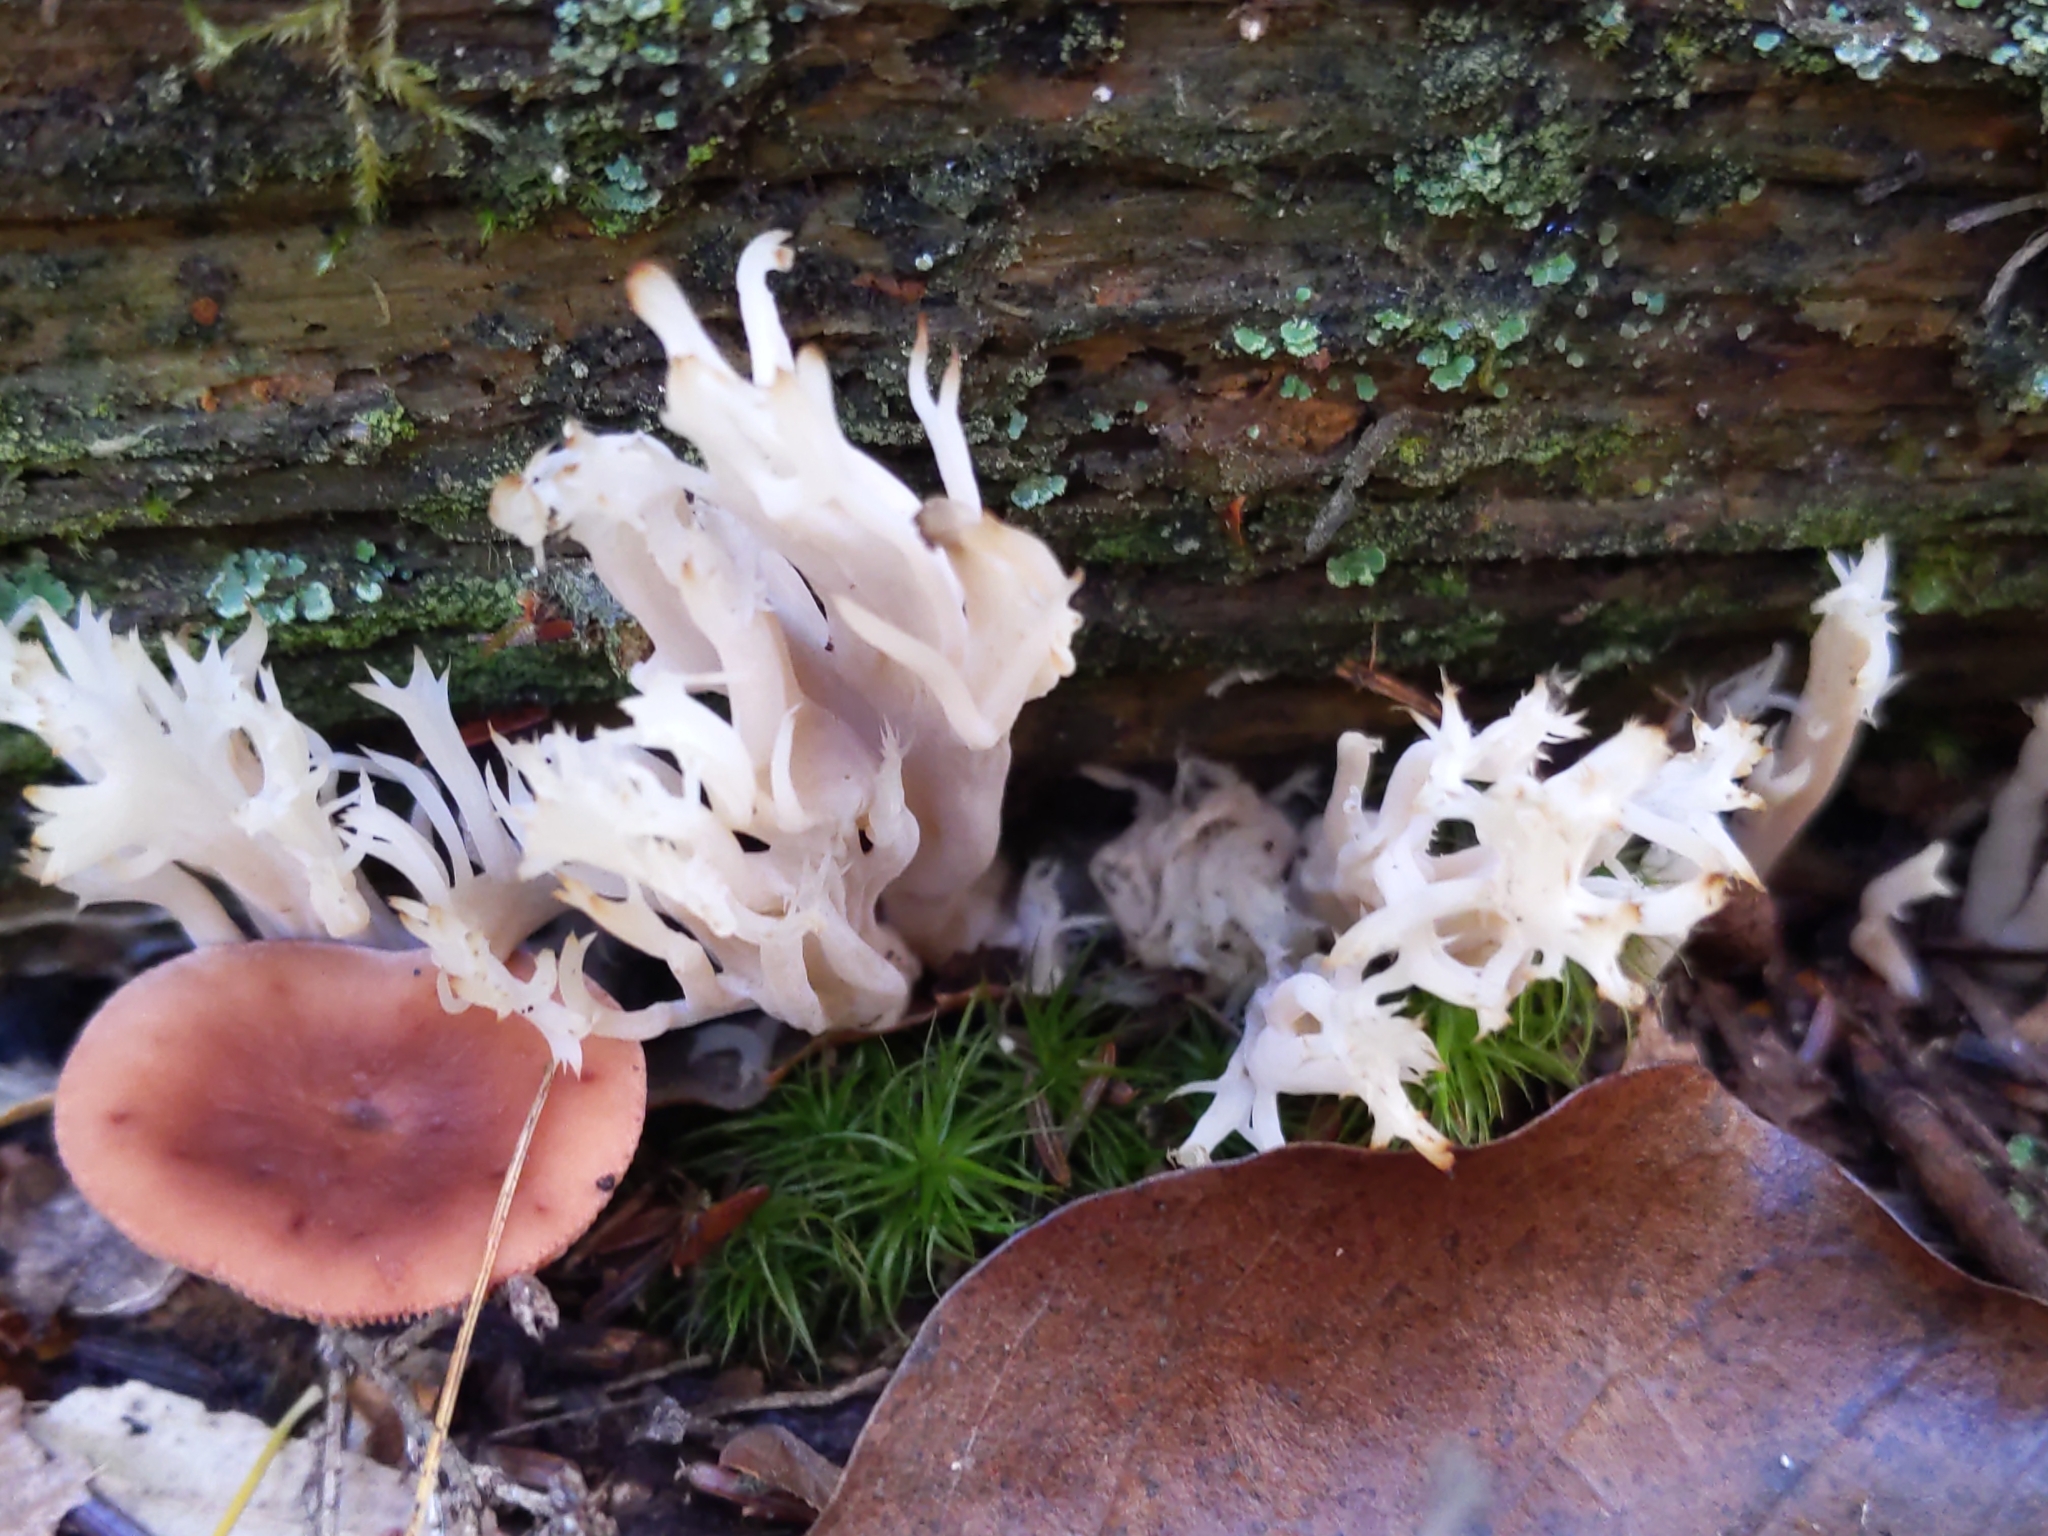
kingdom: Fungi
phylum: Basidiomycota
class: Agaricomycetes
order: Cantharellales
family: Hydnaceae
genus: Clavulina
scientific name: Clavulina coralloides
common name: Crested coral
